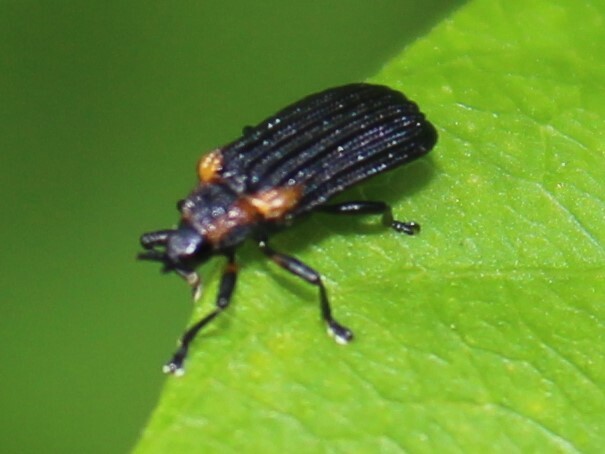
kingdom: Animalia
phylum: Arthropoda
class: Insecta
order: Coleoptera
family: Chrysomelidae
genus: Odontota
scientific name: Odontota scapularis
